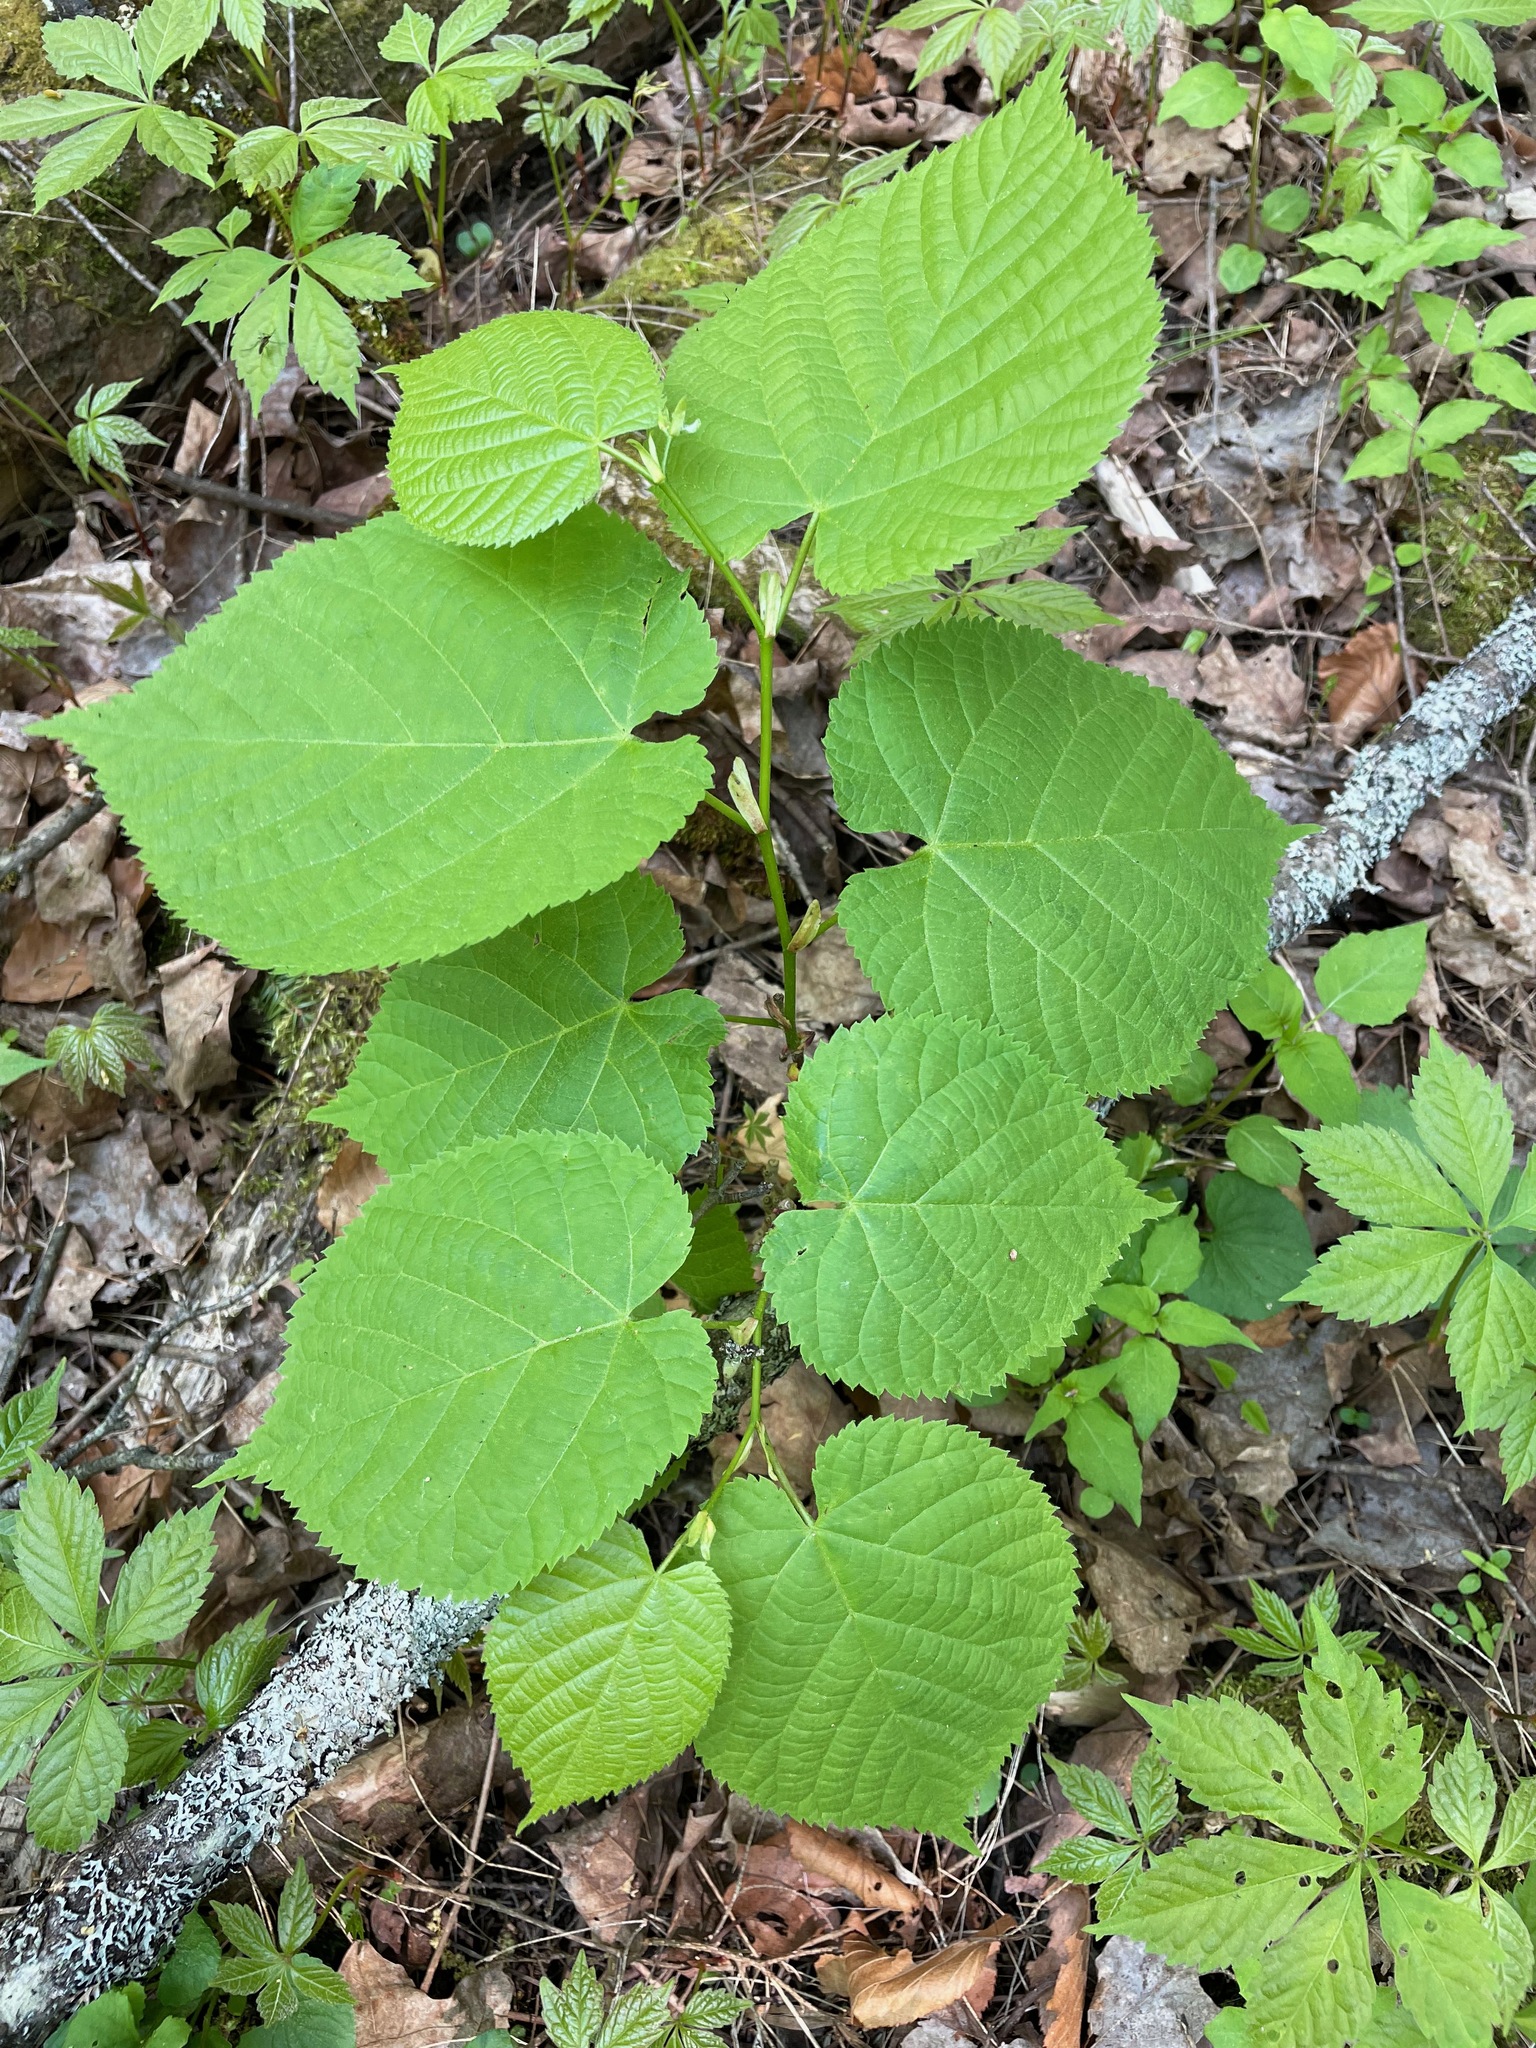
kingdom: Plantae
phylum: Tracheophyta
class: Magnoliopsida
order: Malvales
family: Malvaceae
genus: Tilia
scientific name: Tilia americana
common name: Basswood
